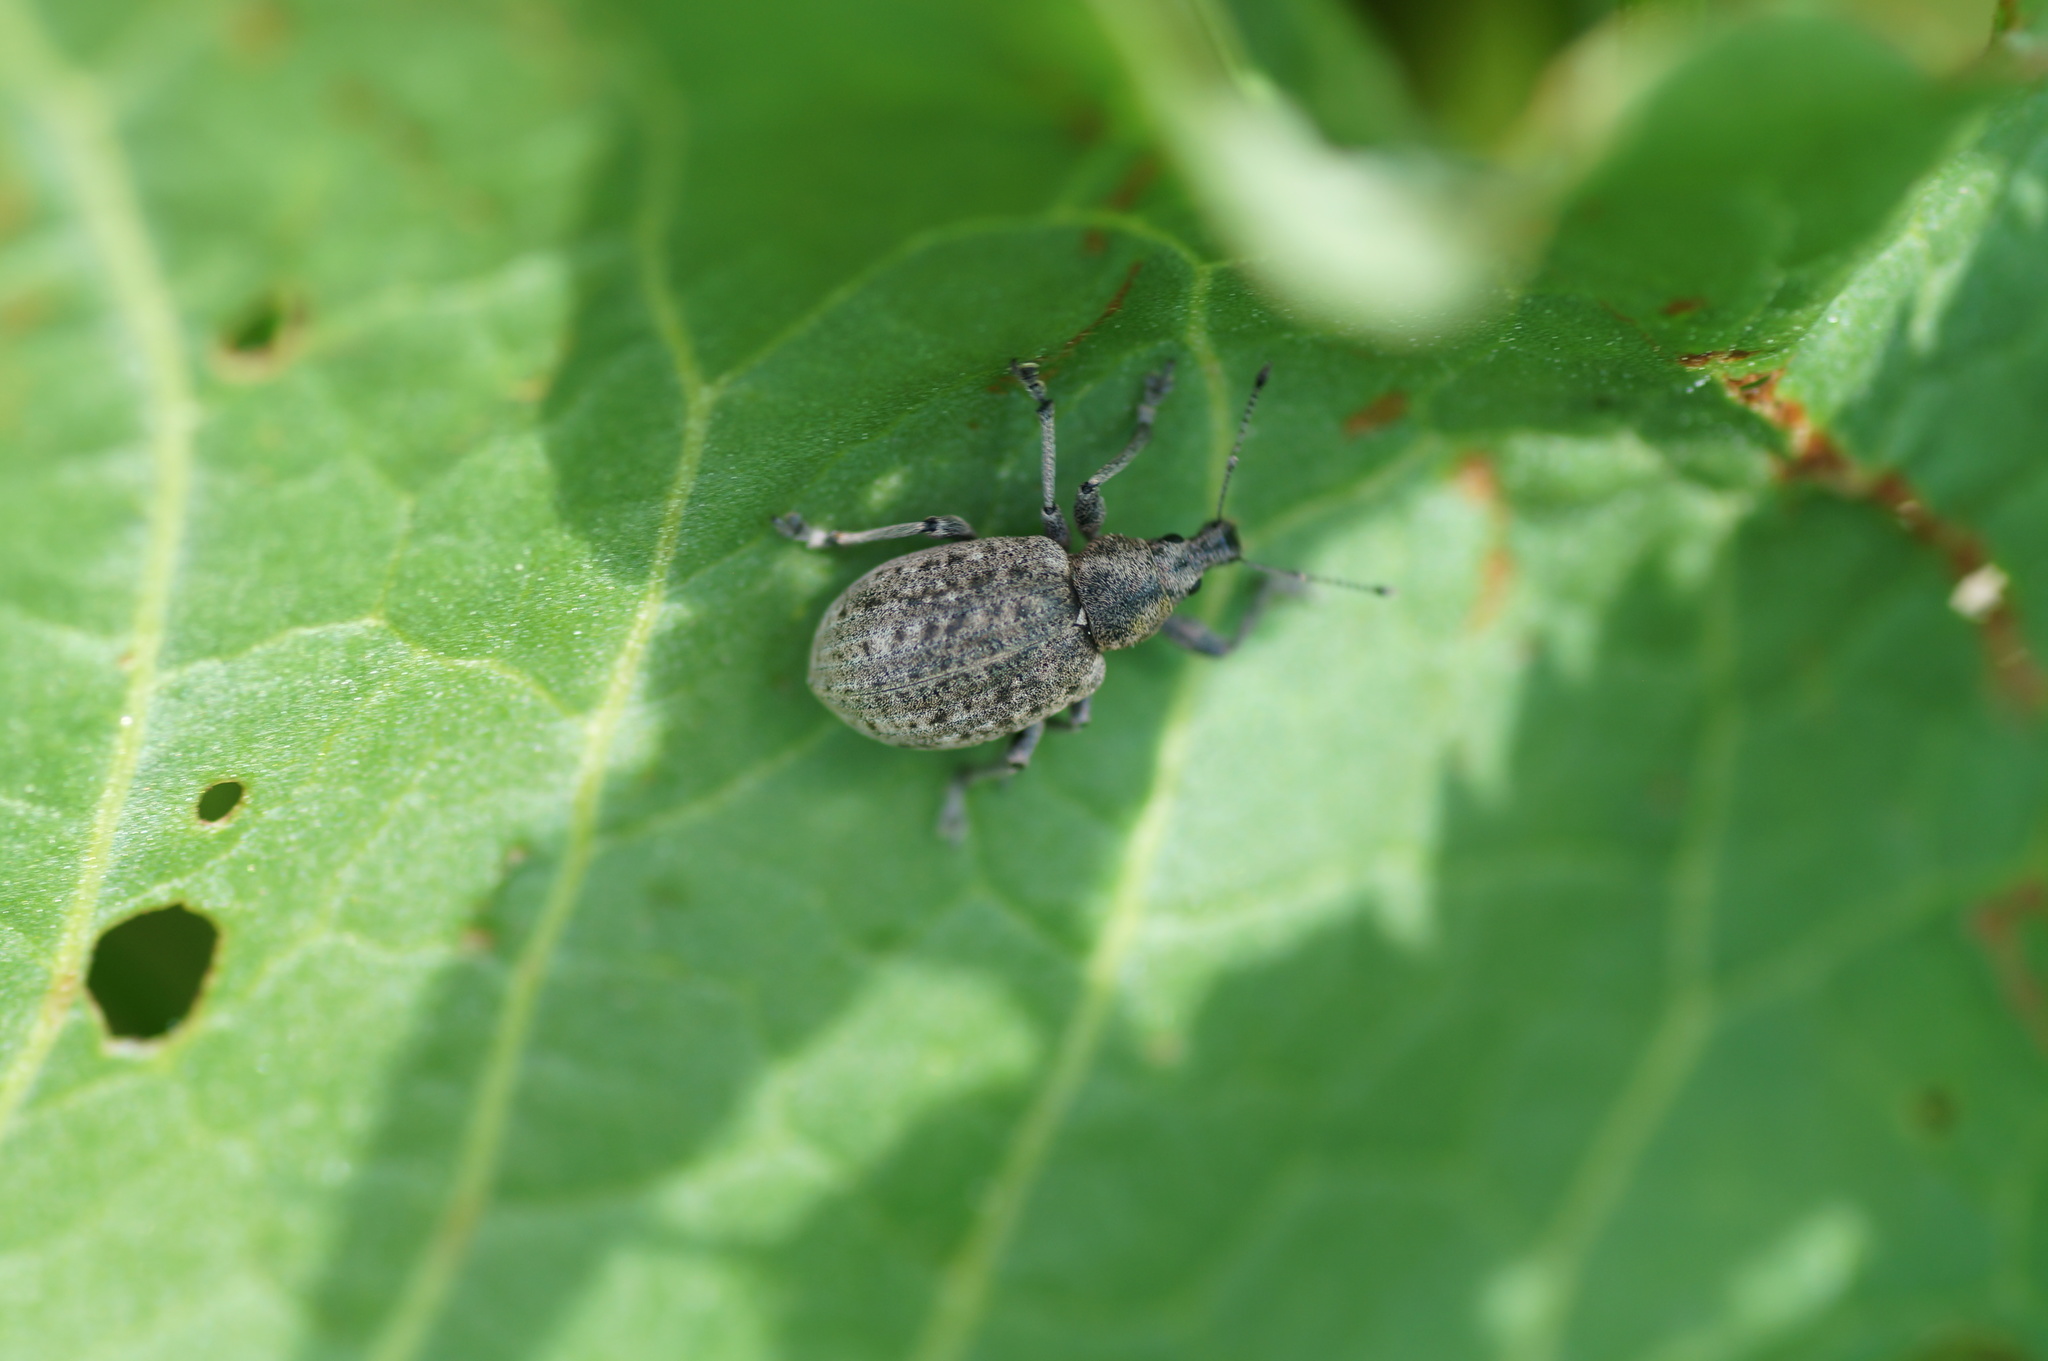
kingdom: Animalia
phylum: Arthropoda
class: Insecta
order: Coleoptera
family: Curculionidae
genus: Liophloeus
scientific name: Liophloeus tessulatus
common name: Weevil
